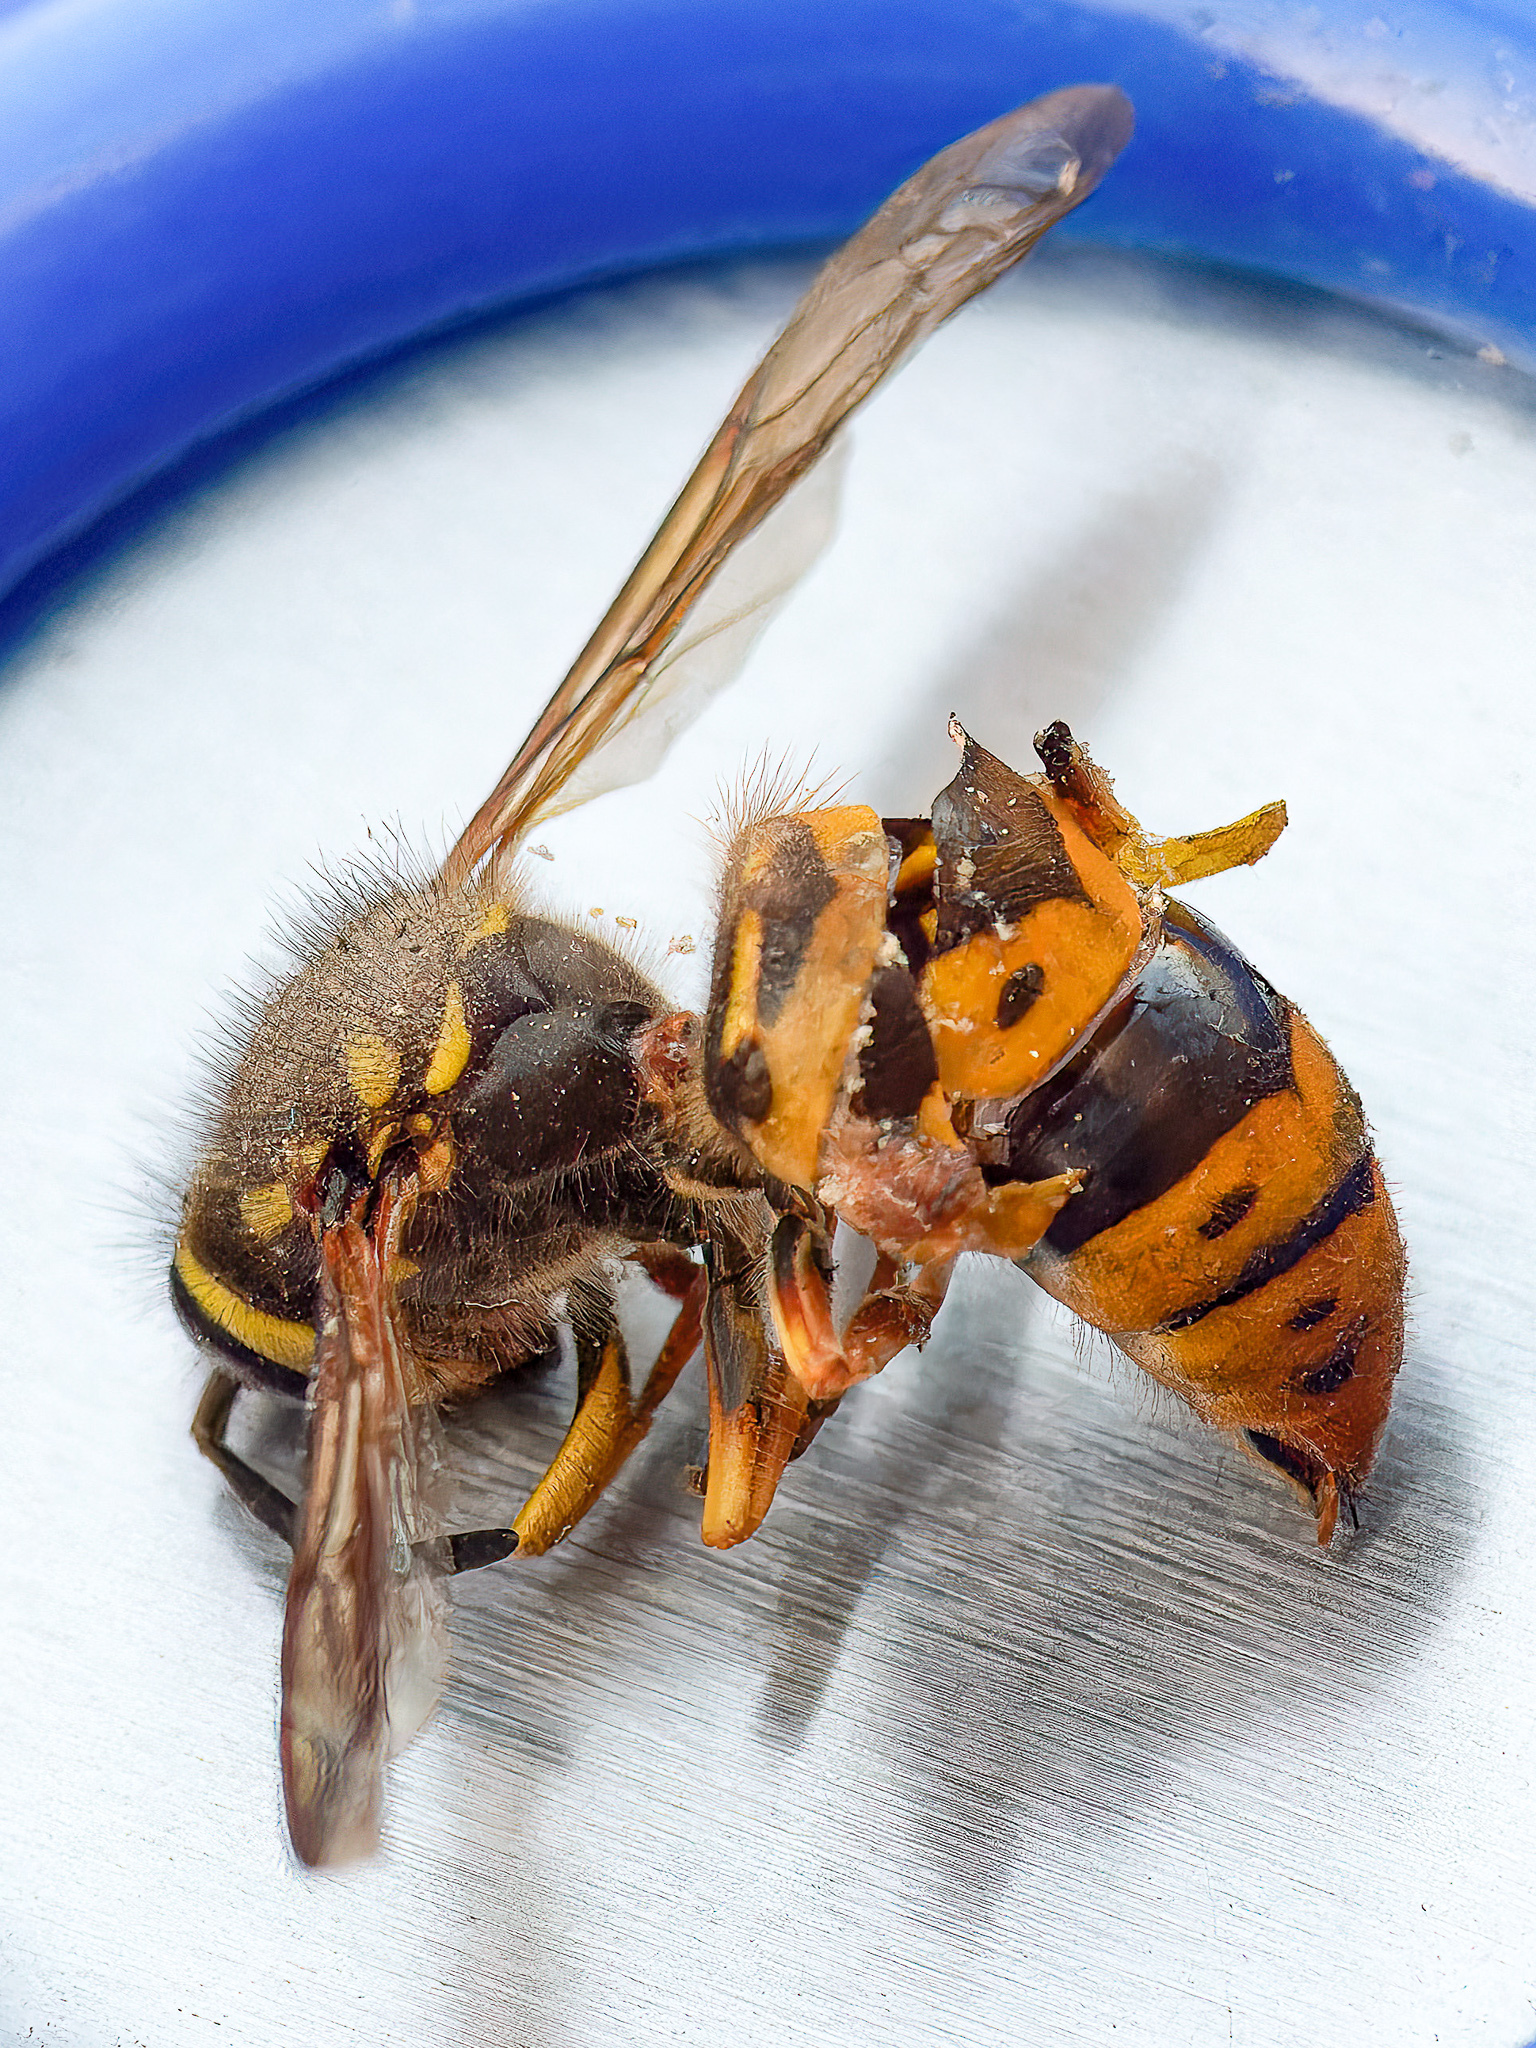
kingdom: Animalia
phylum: Arthropoda
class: Insecta
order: Hymenoptera
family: Vespidae
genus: Vespula
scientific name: Vespula maculifrons
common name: Eastern yellowjacket
